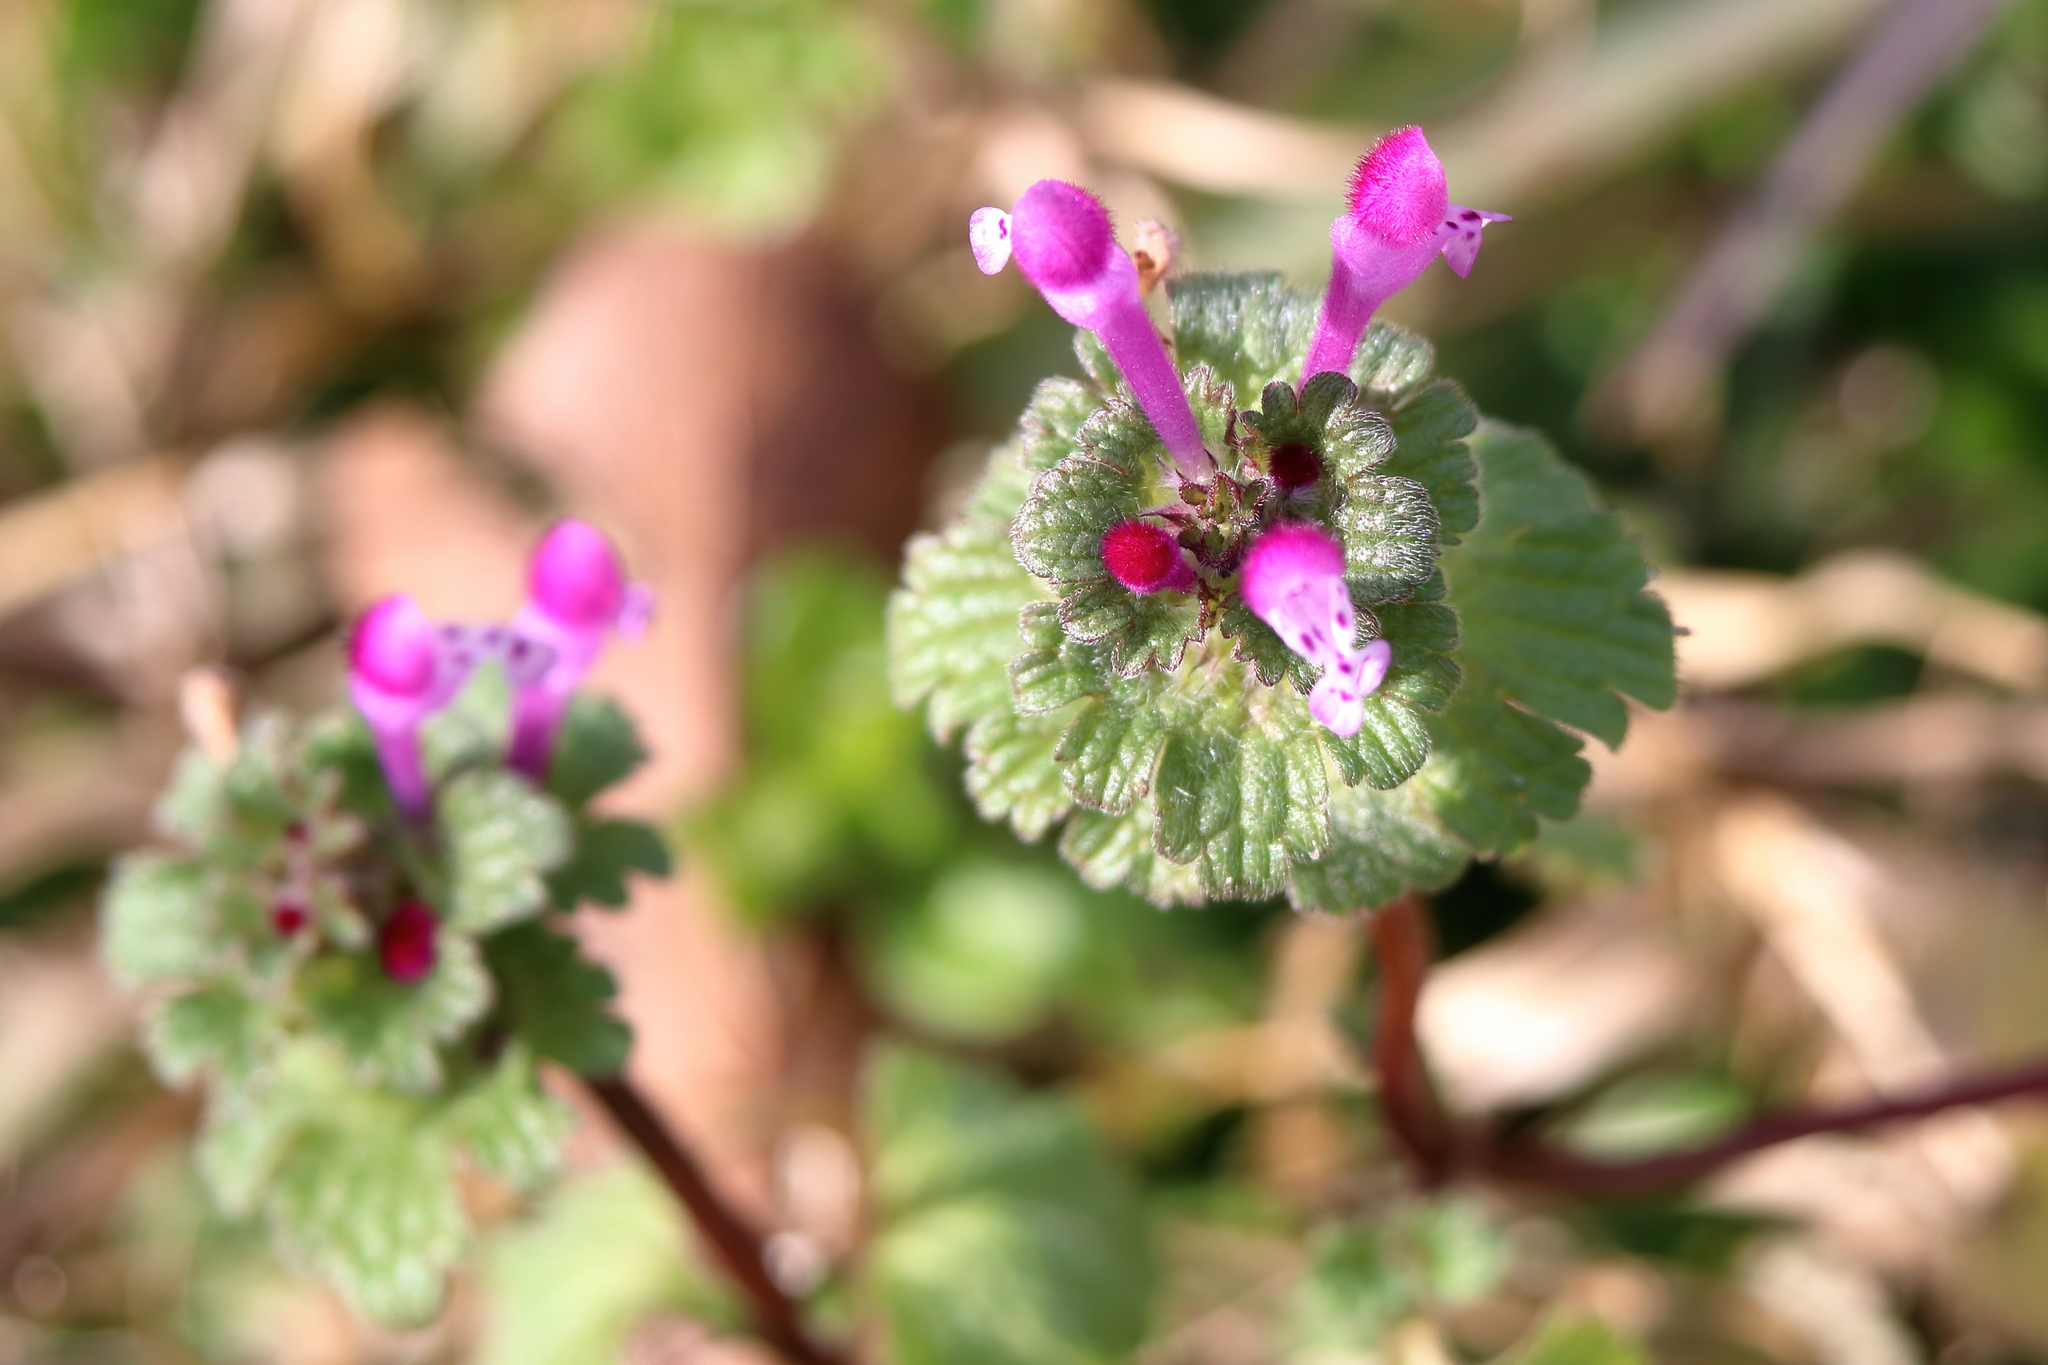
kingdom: Plantae
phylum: Tracheophyta
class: Magnoliopsida
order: Lamiales
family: Lamiaceae
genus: Lamium
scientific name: Lamium amplexicaule
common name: Henbit dead-nettle
